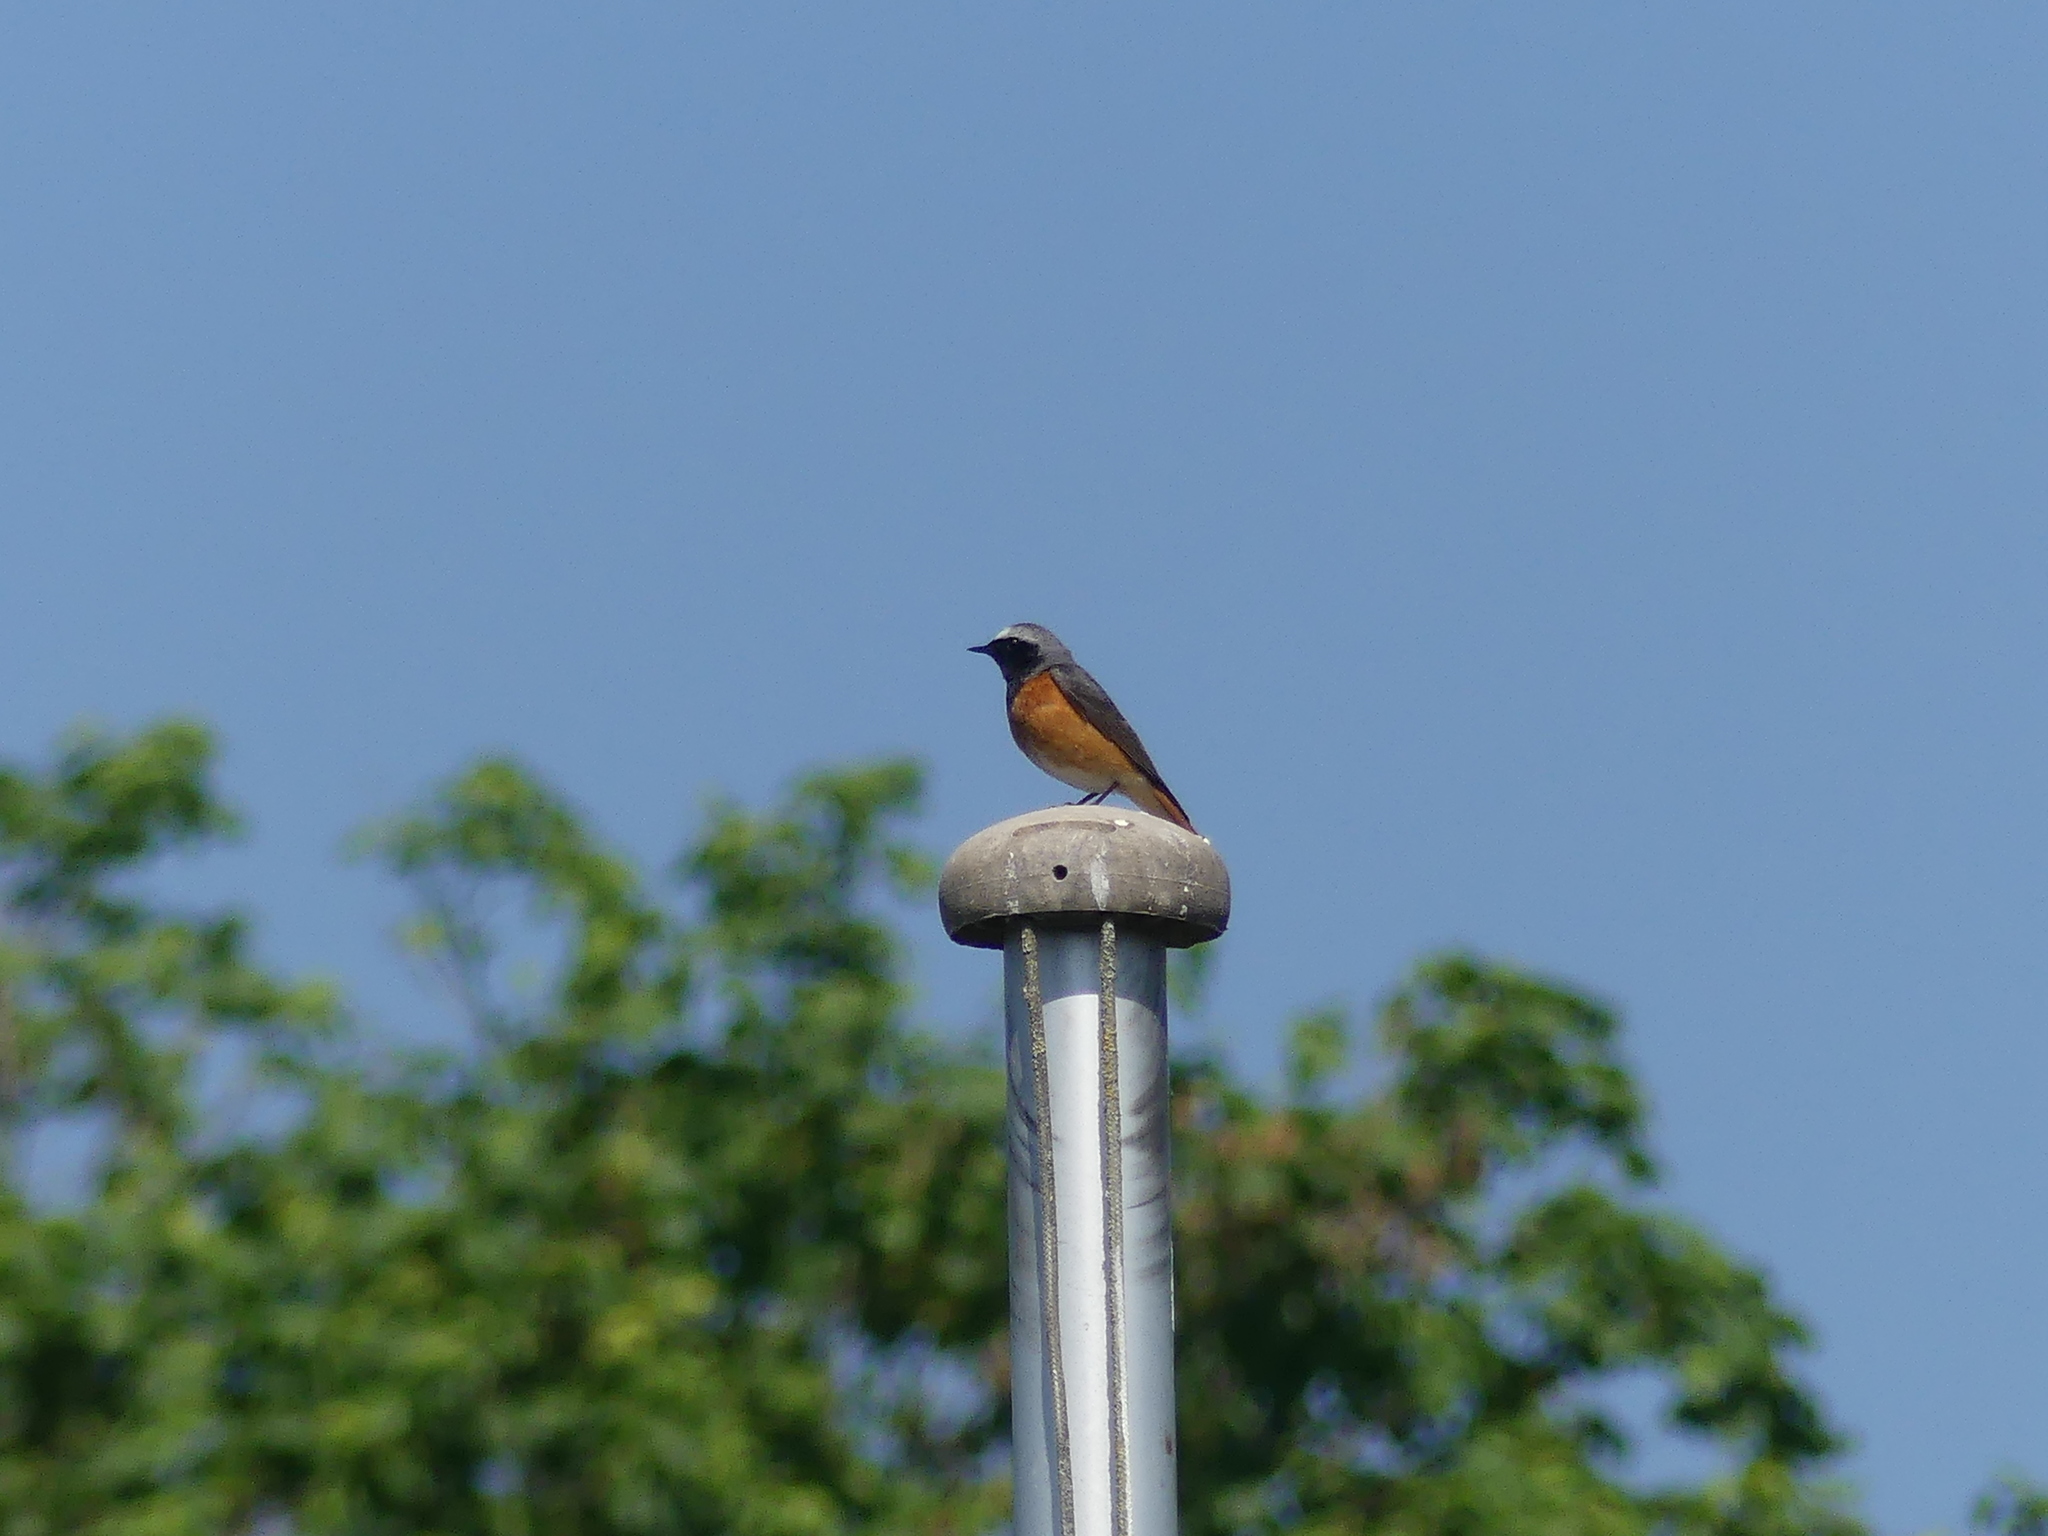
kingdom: Animalia
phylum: Chordata
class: Aves
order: Passeriformes
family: Muscicapidae
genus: Phoenicurus
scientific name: Phoenicurus phoenicurus
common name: Common redstart
